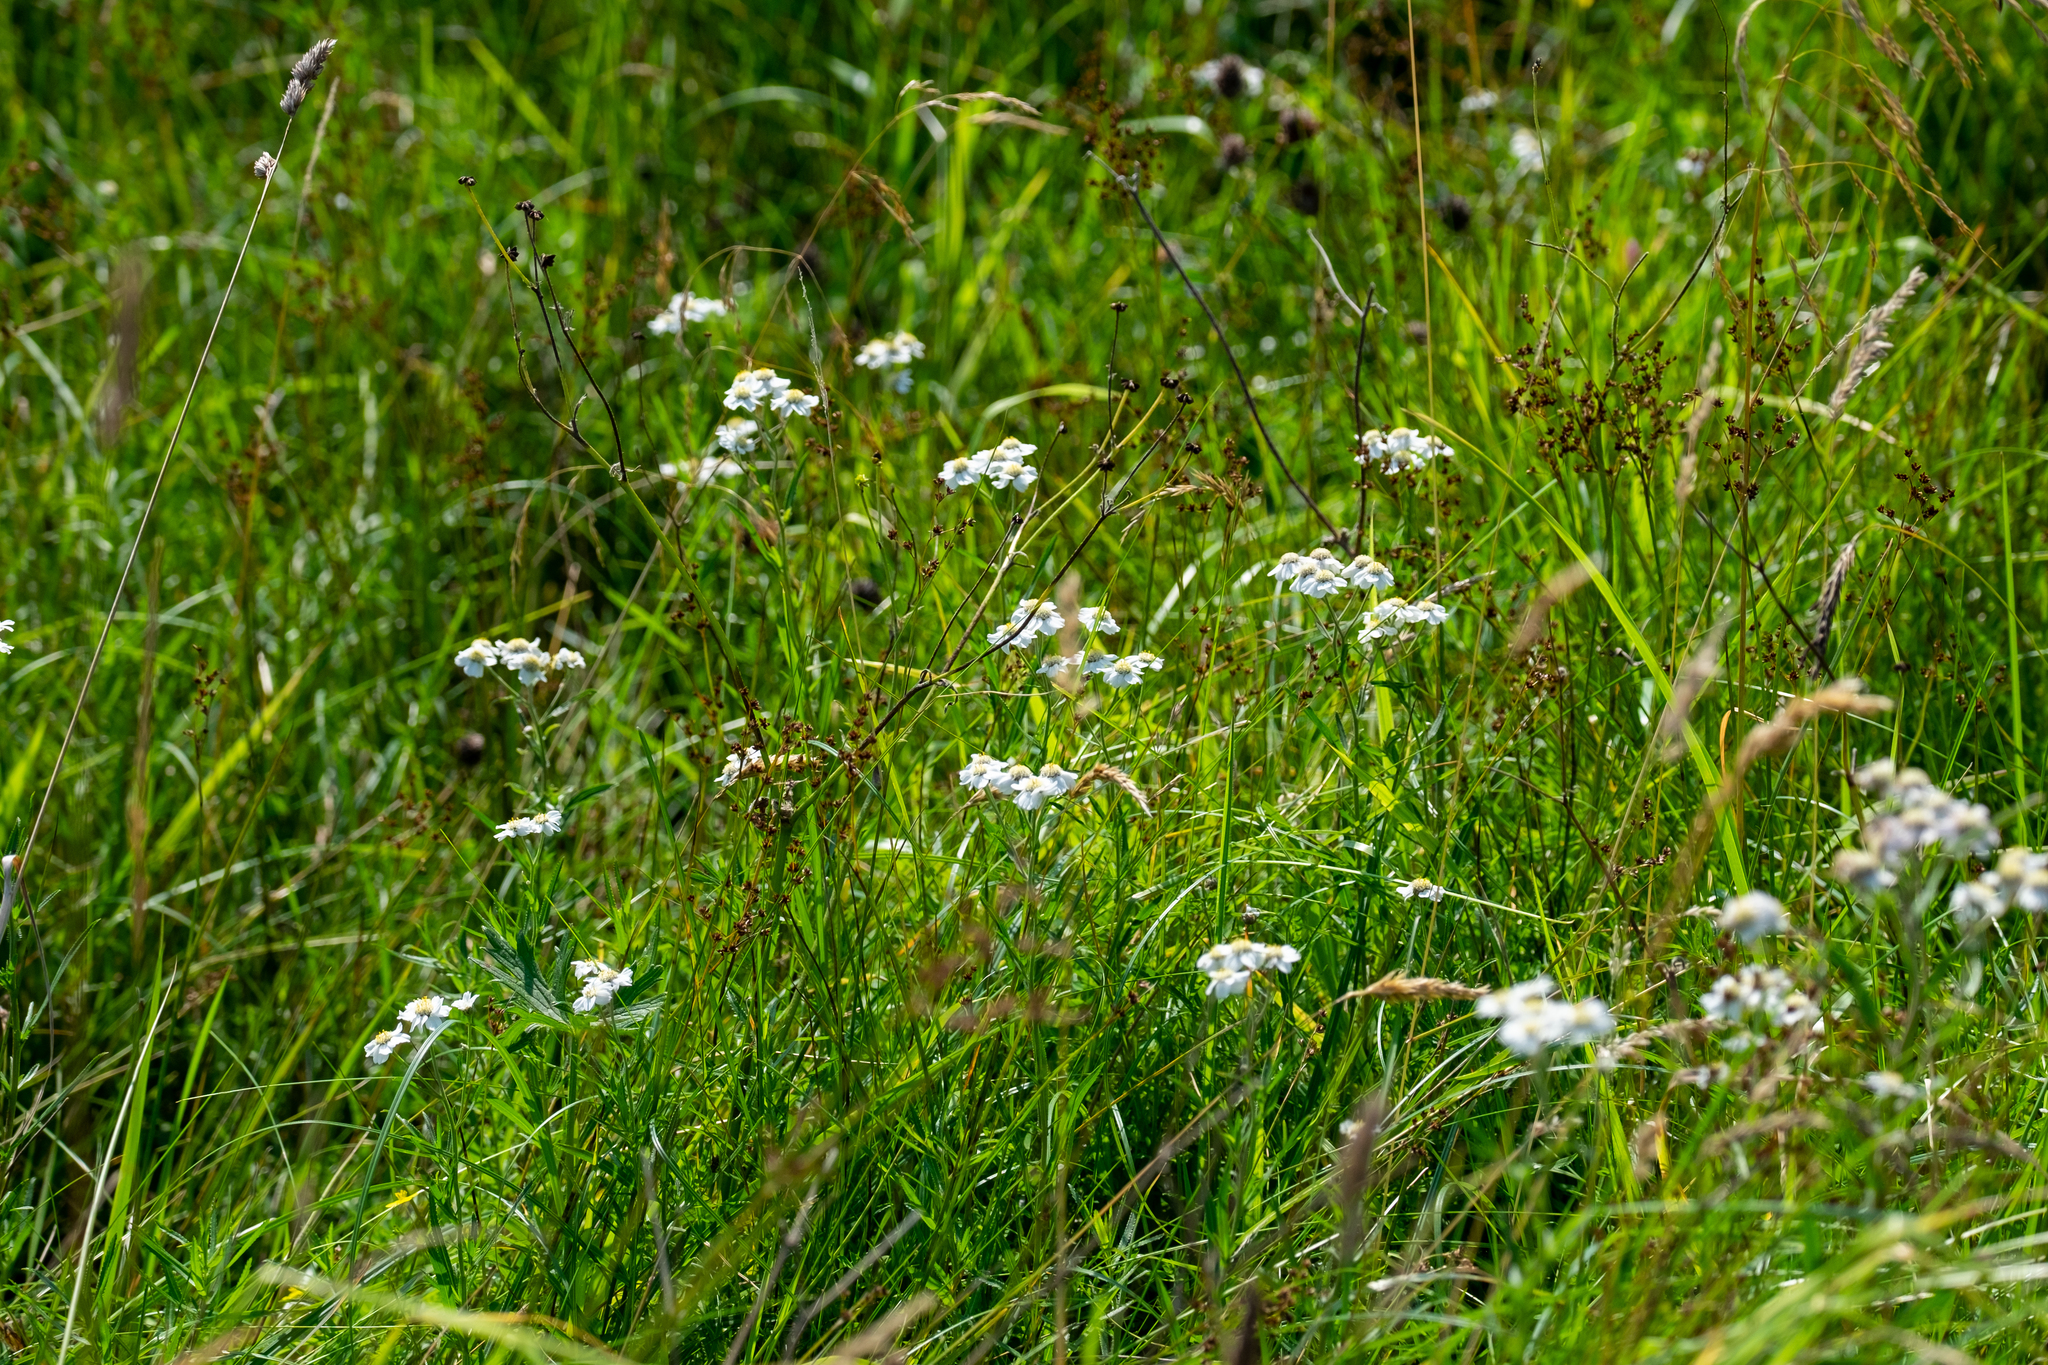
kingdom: Plantae
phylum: Tracheophyta
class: Magnoliopsida
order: Asterales
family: Asteraceae
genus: Achillea
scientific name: Achillea ptarmica
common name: Sneezeweed
